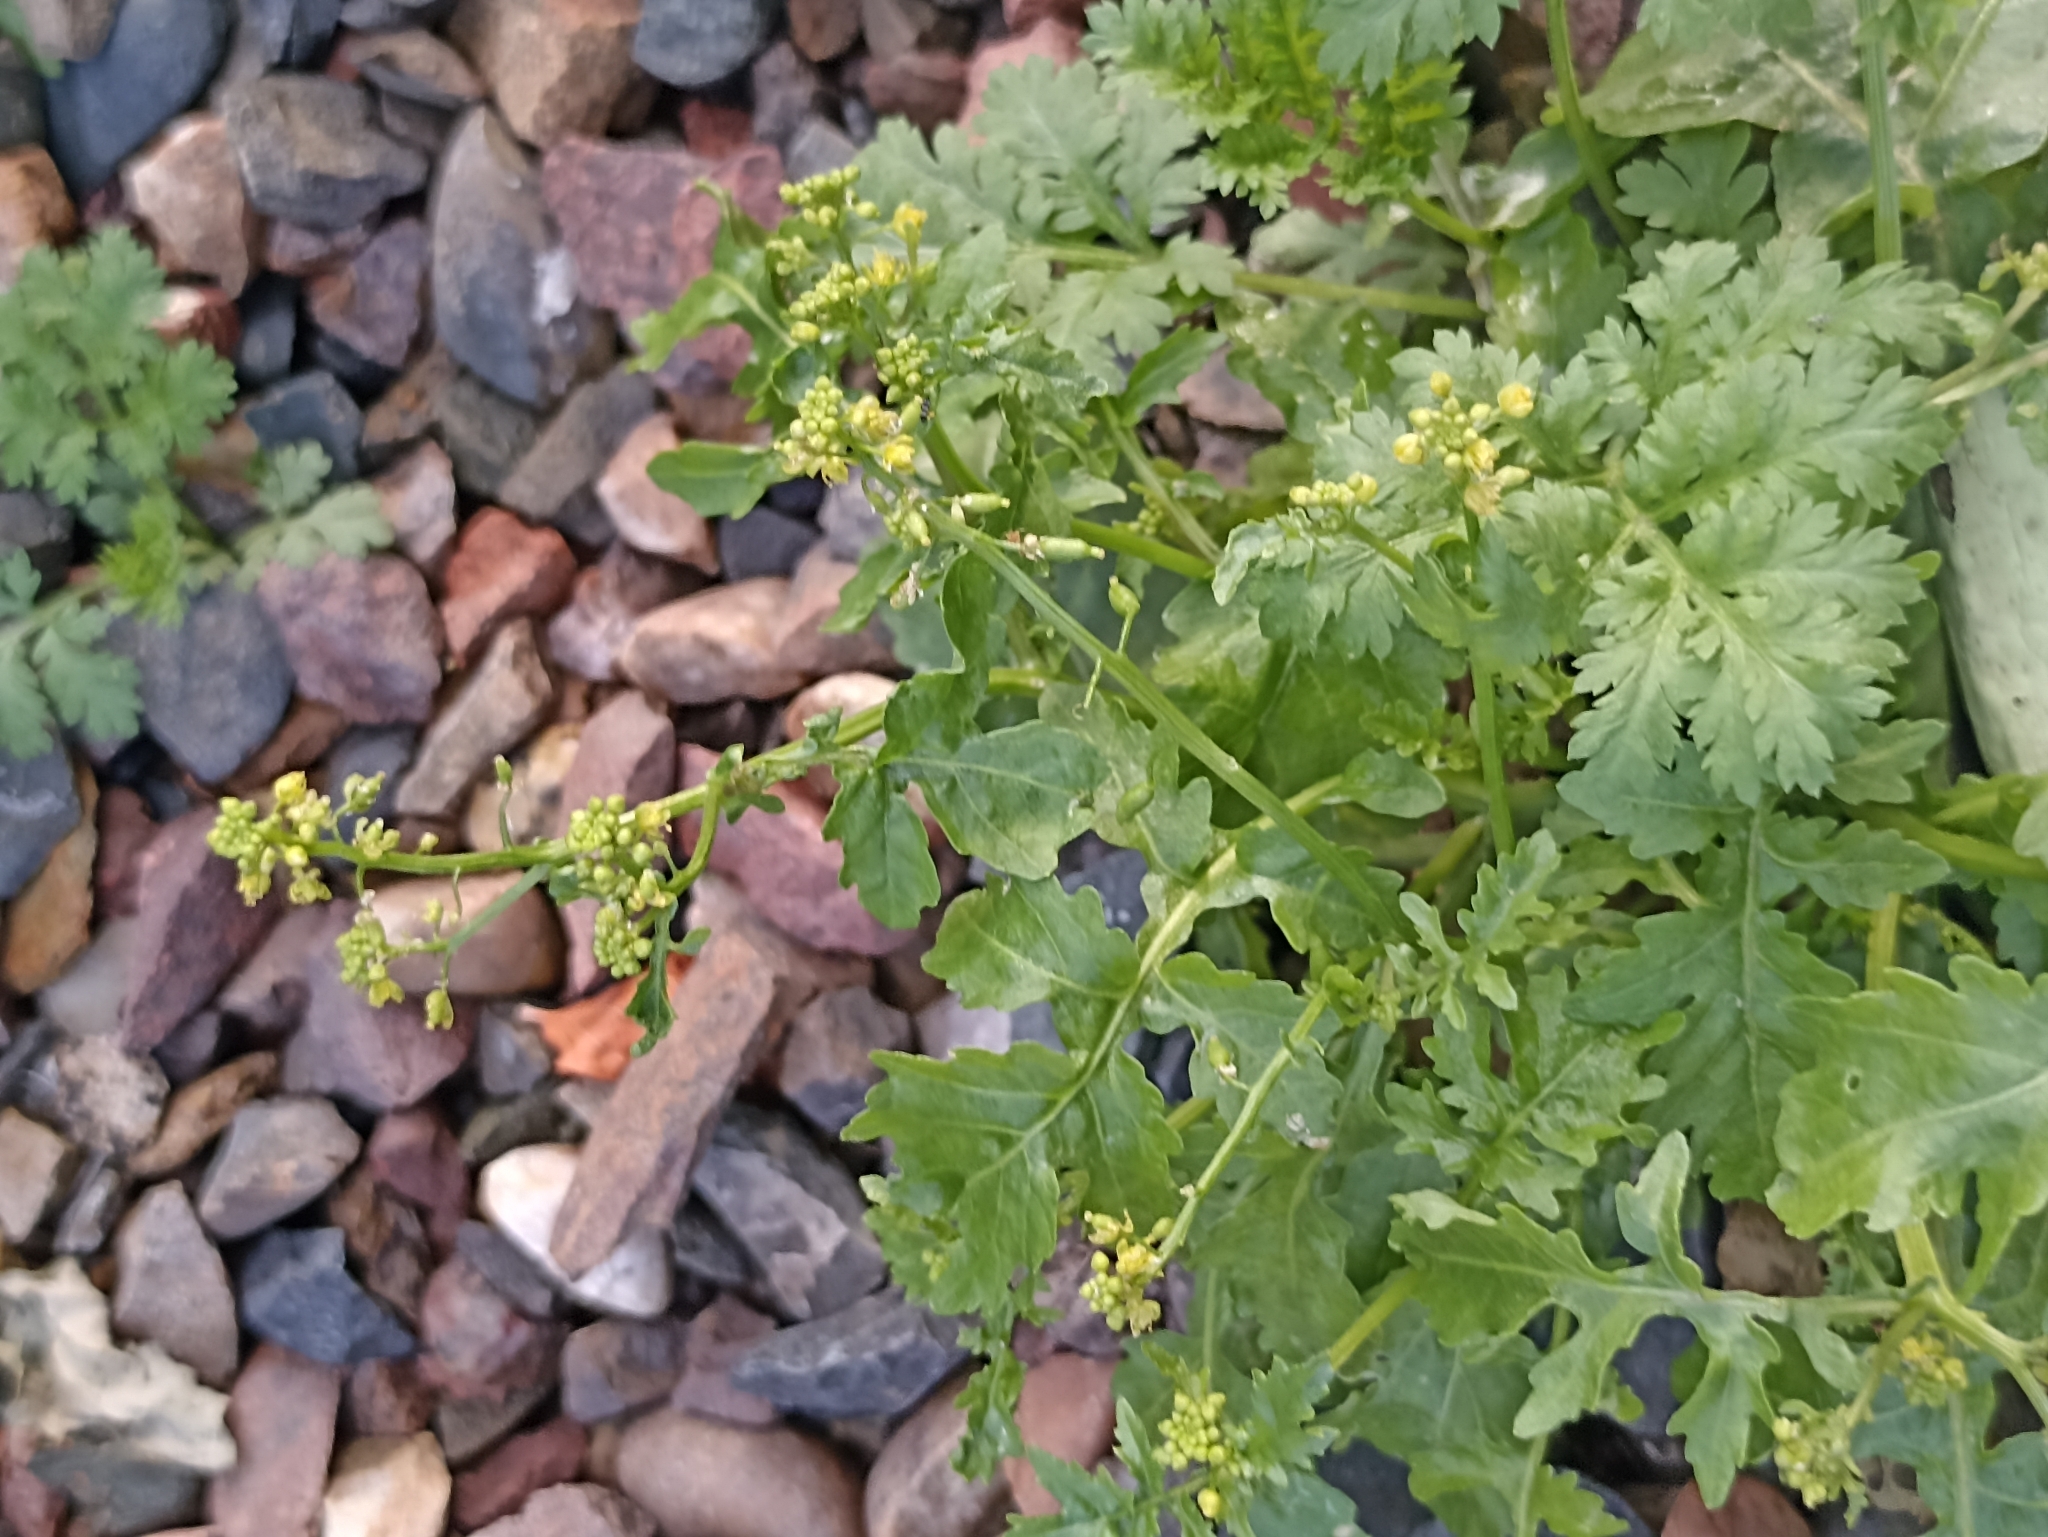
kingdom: Plantae
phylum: Tracheophyta
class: Magnoliopsida
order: Brassicales
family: Brassicaceae
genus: Rorippa
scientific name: Rorippa palustris
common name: Marsh yellow-cress
